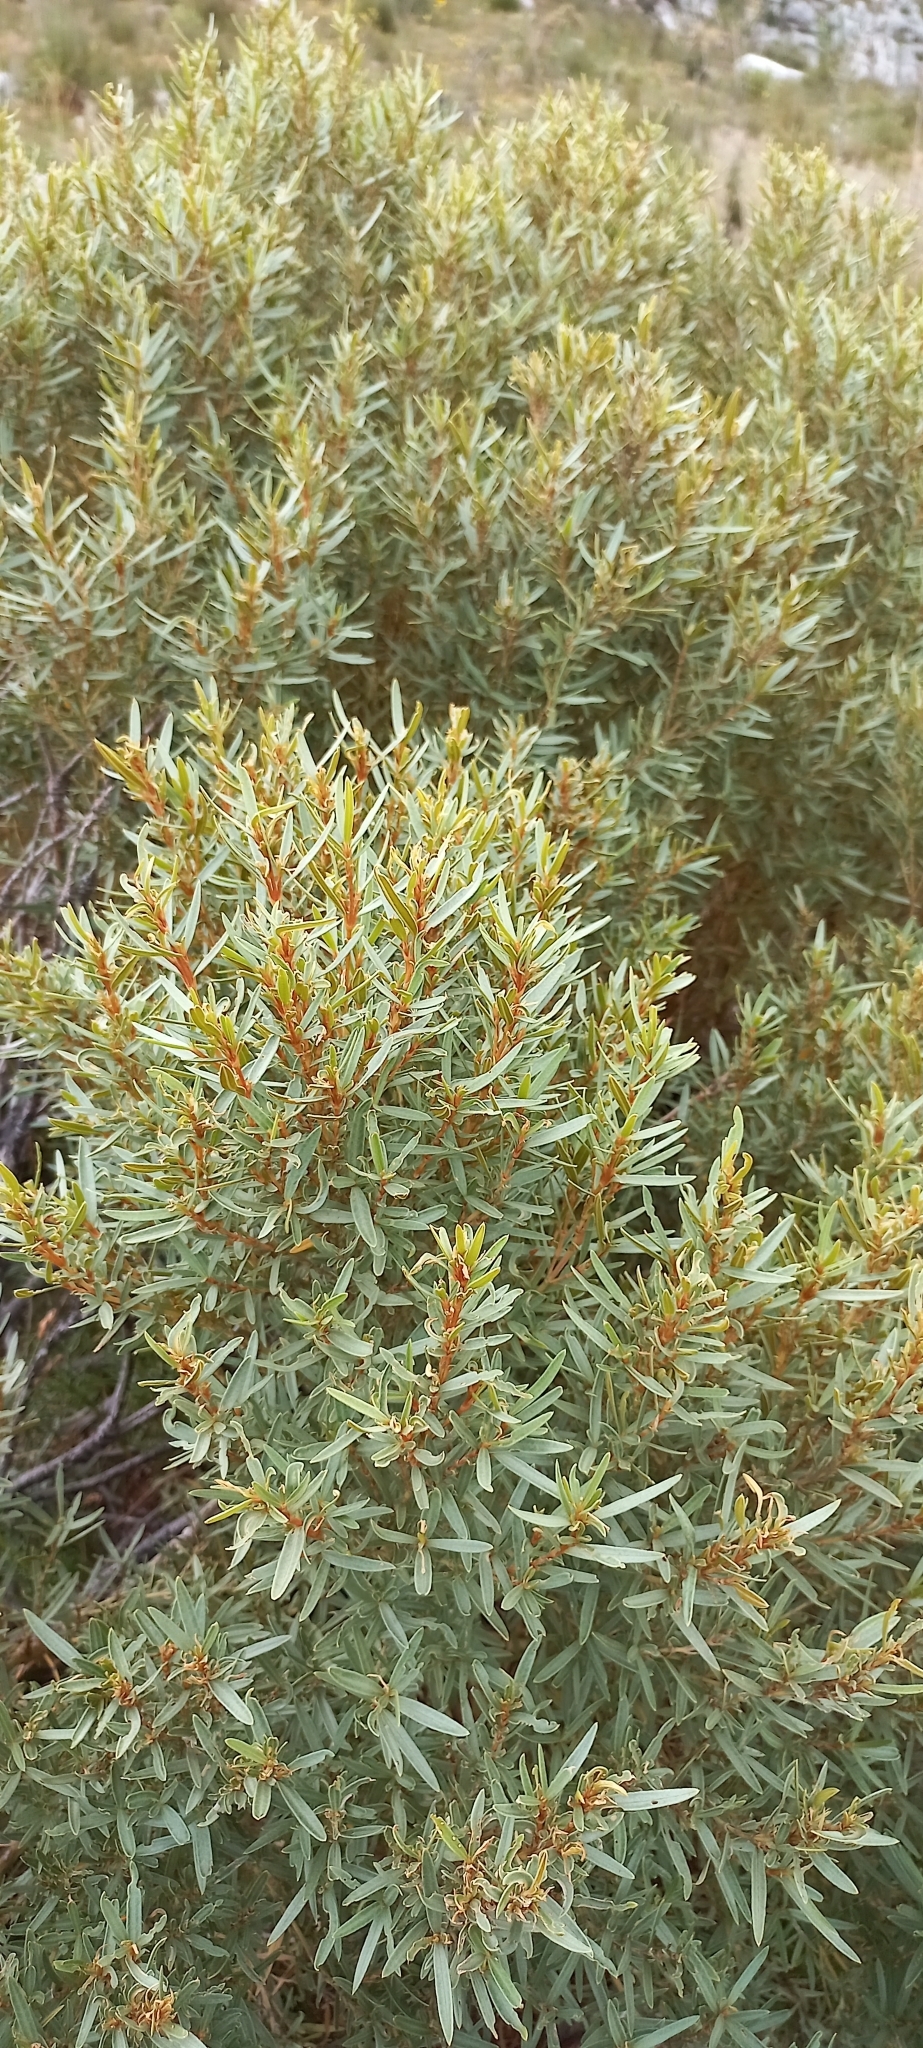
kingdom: Plantae
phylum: Tracheophyta
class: Magnoliopsida
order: Cornales
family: Grubbiaceae
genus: Grubbia
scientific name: Grubbia tomentosa
